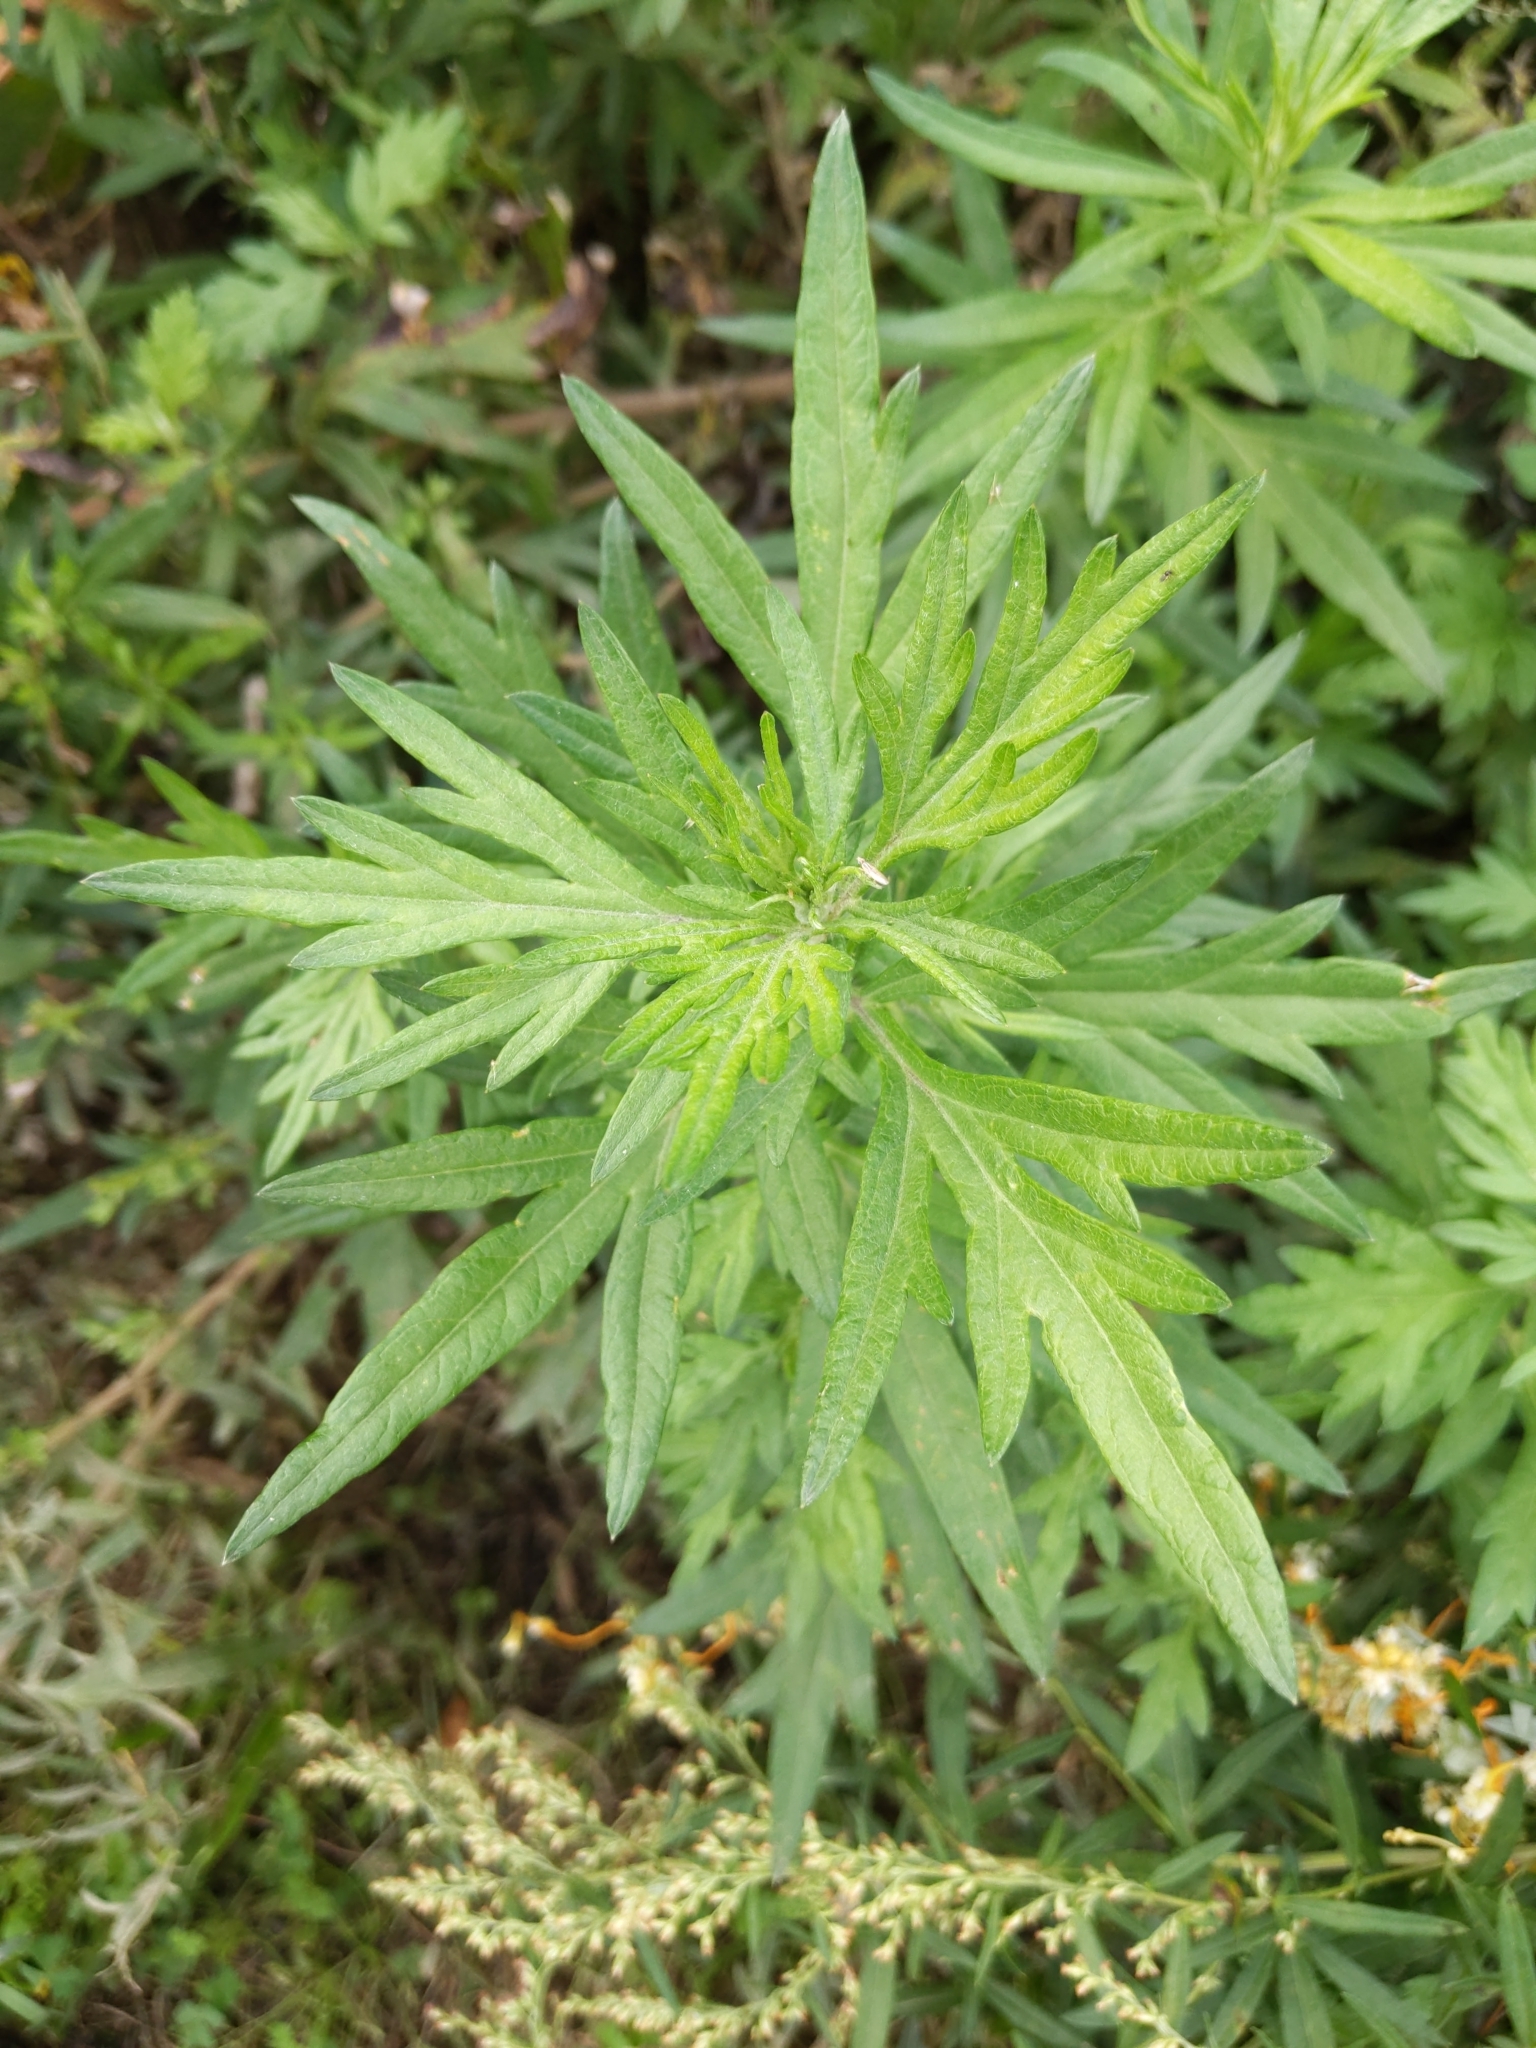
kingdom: Plantae
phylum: Tracheophyta
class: Magnoliopsida
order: Asterales
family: Asteraceae
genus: Artemisia
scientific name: Artemisia vulgaris
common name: Mugwort
